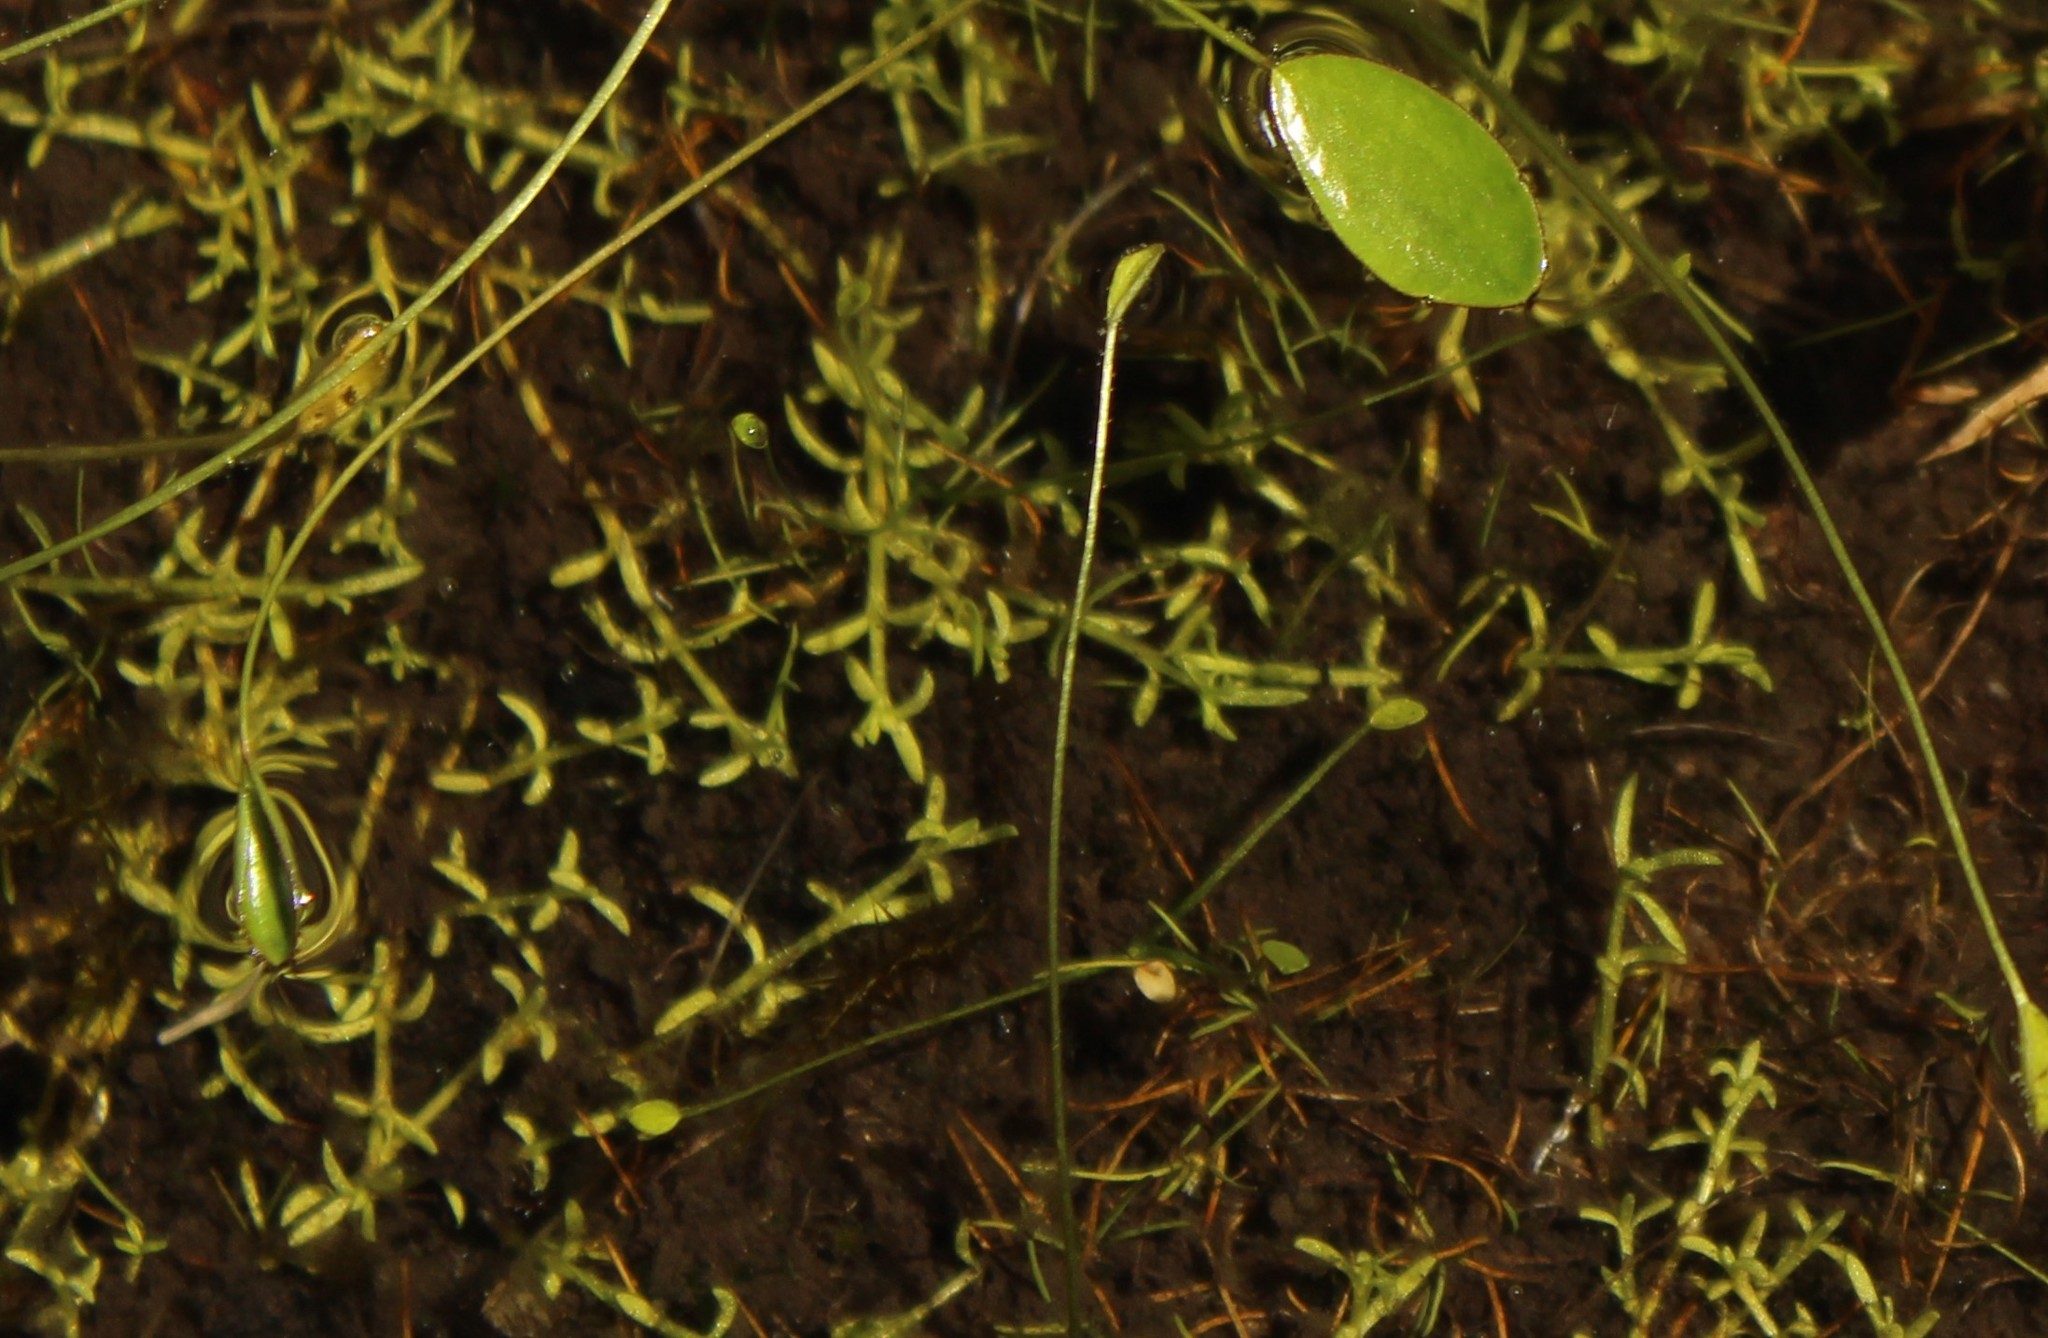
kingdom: Plantae
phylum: Tracheophyta
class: Magnoliopsida
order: Saxifragales
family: Crassulaceae
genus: Crassula
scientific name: Crassula venezuelensis
